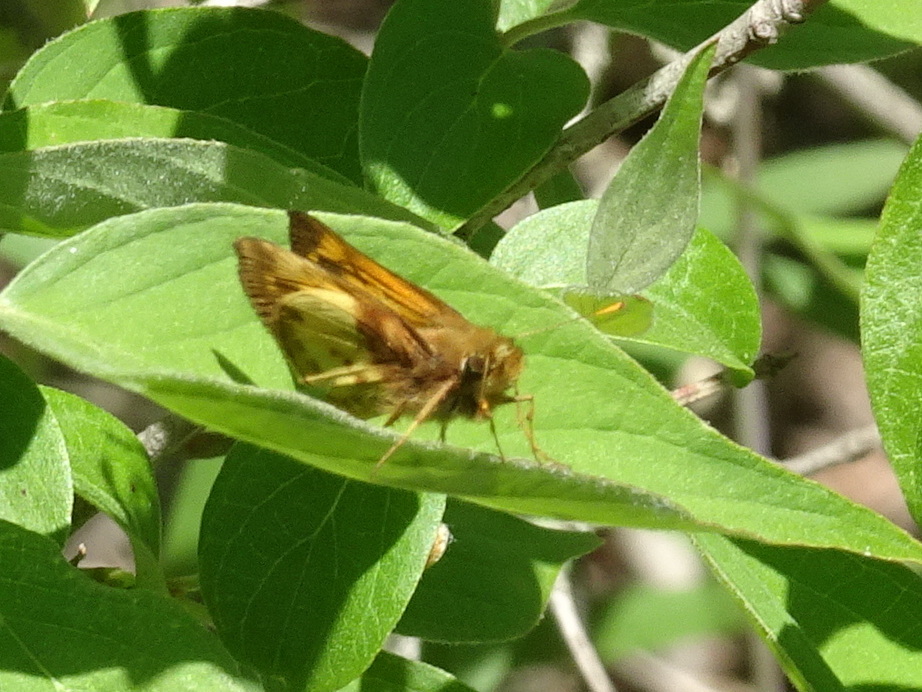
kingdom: Animalia
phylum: Arthropoda
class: Insecta
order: Lepidoptera
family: Hesperiidae
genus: Lon
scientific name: Lon zabulon
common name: Zabulon skipper
